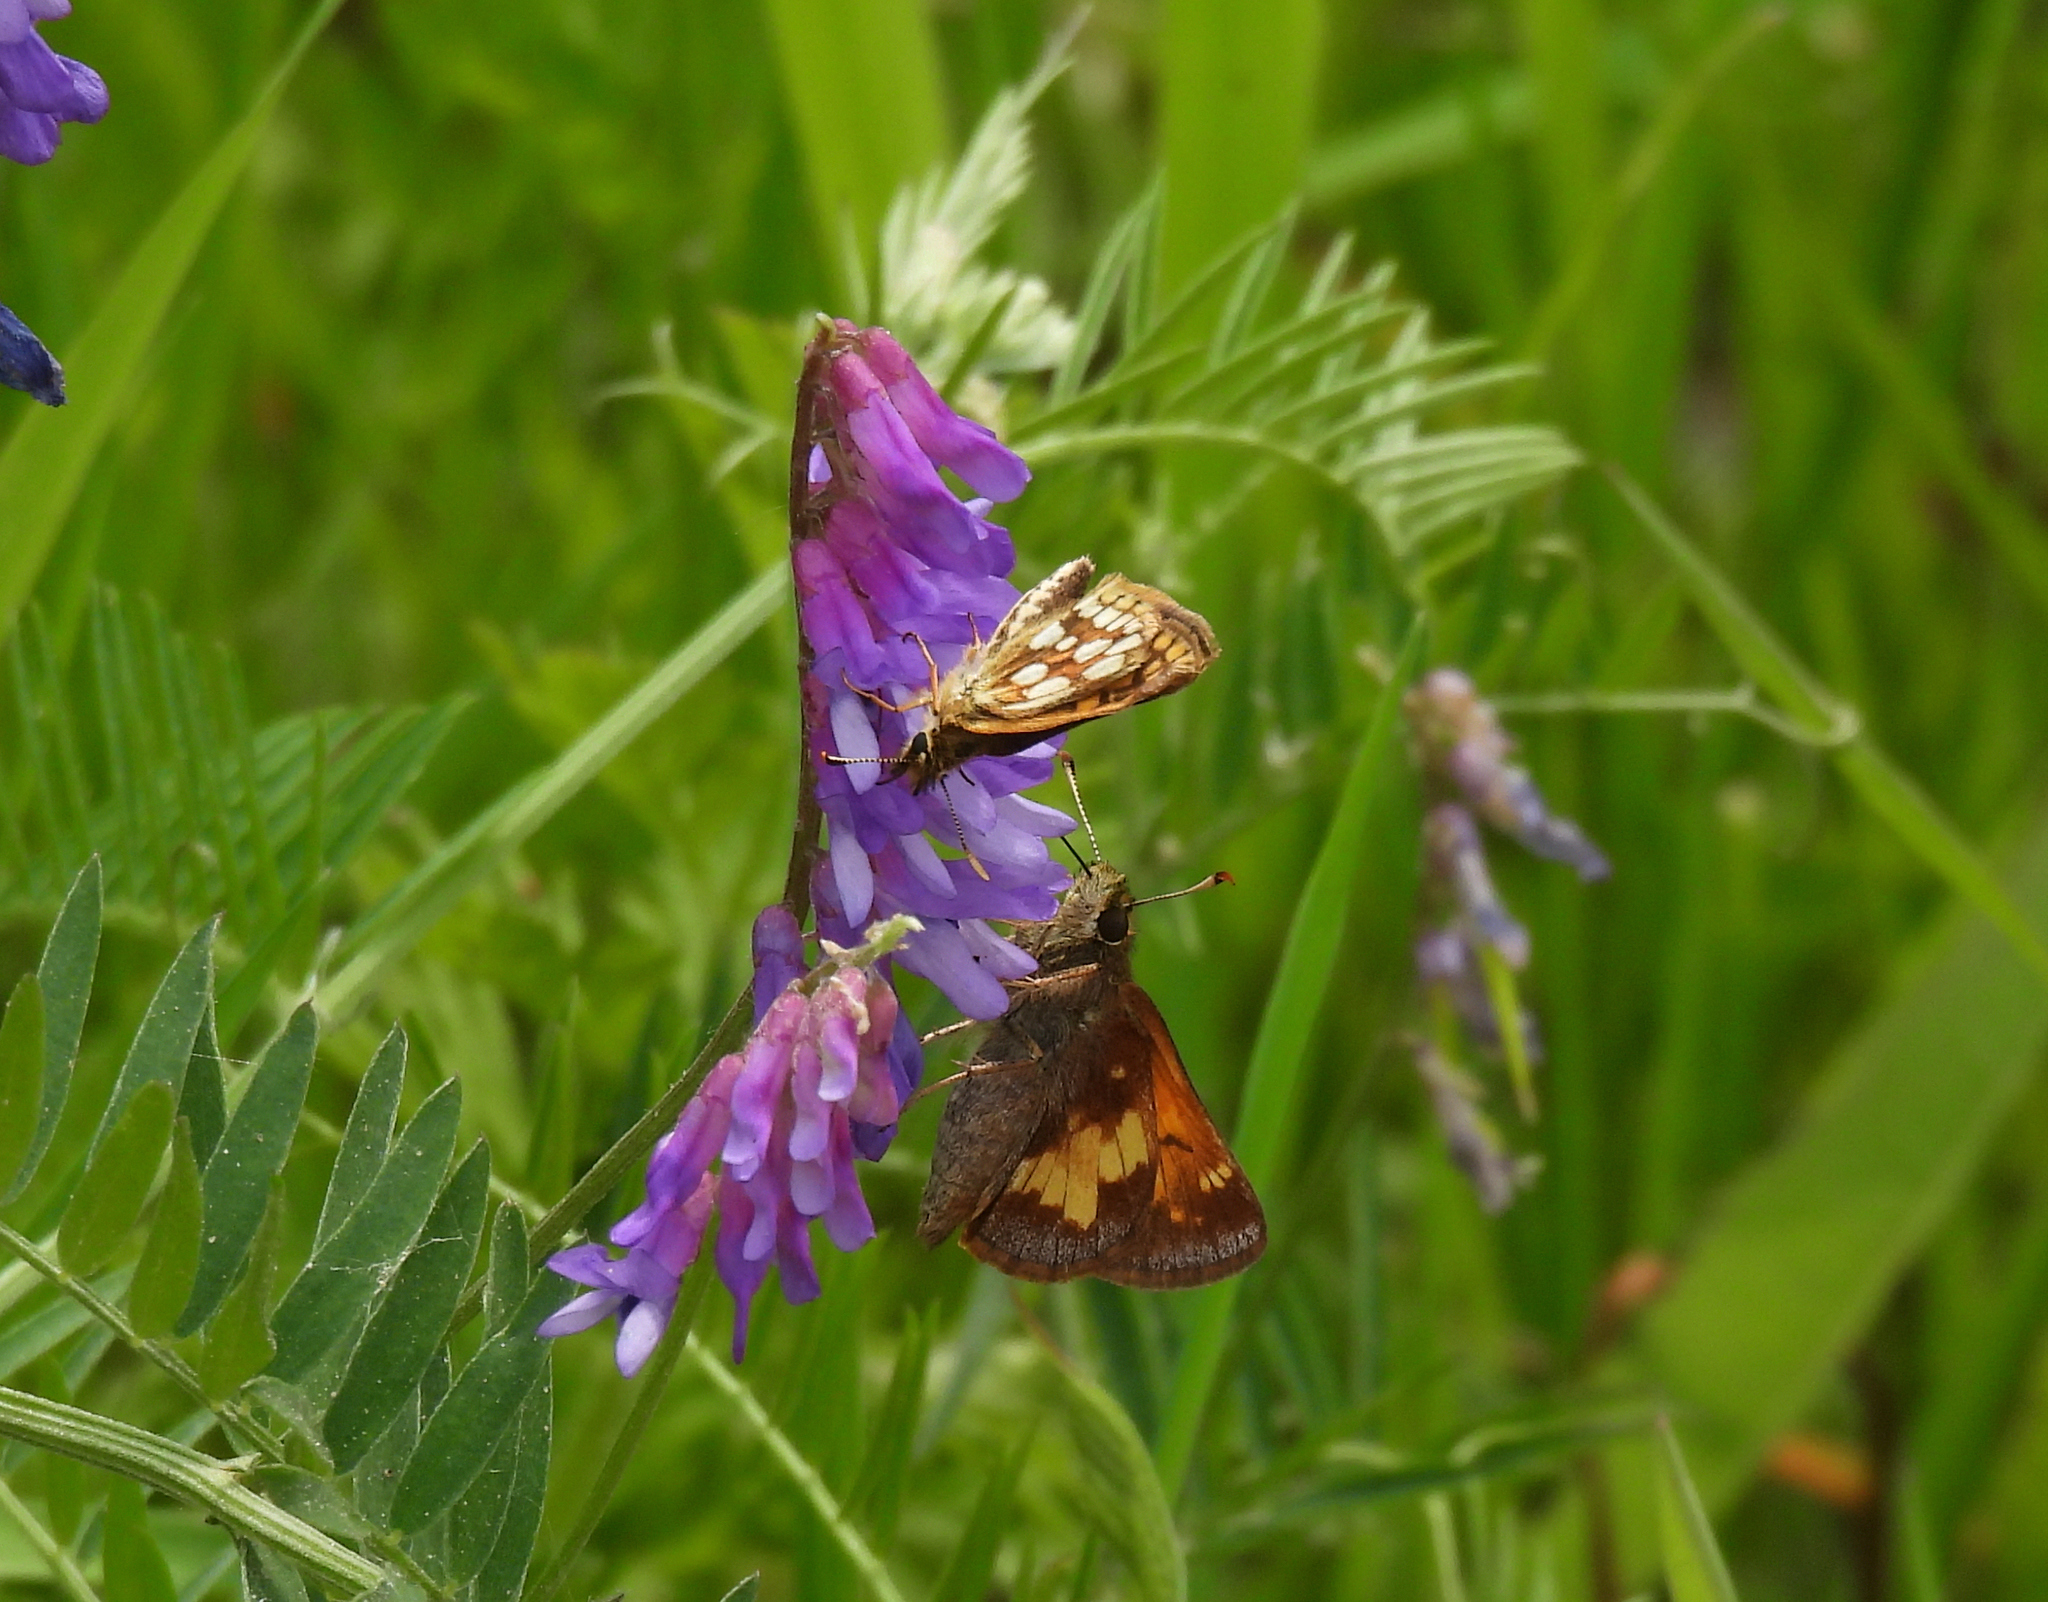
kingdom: Animalia
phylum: Arthropoda
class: Insecta
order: Lepidoptera
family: Hesperiidae
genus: Lon
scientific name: Lon hobomok
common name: Hobomok skipper
